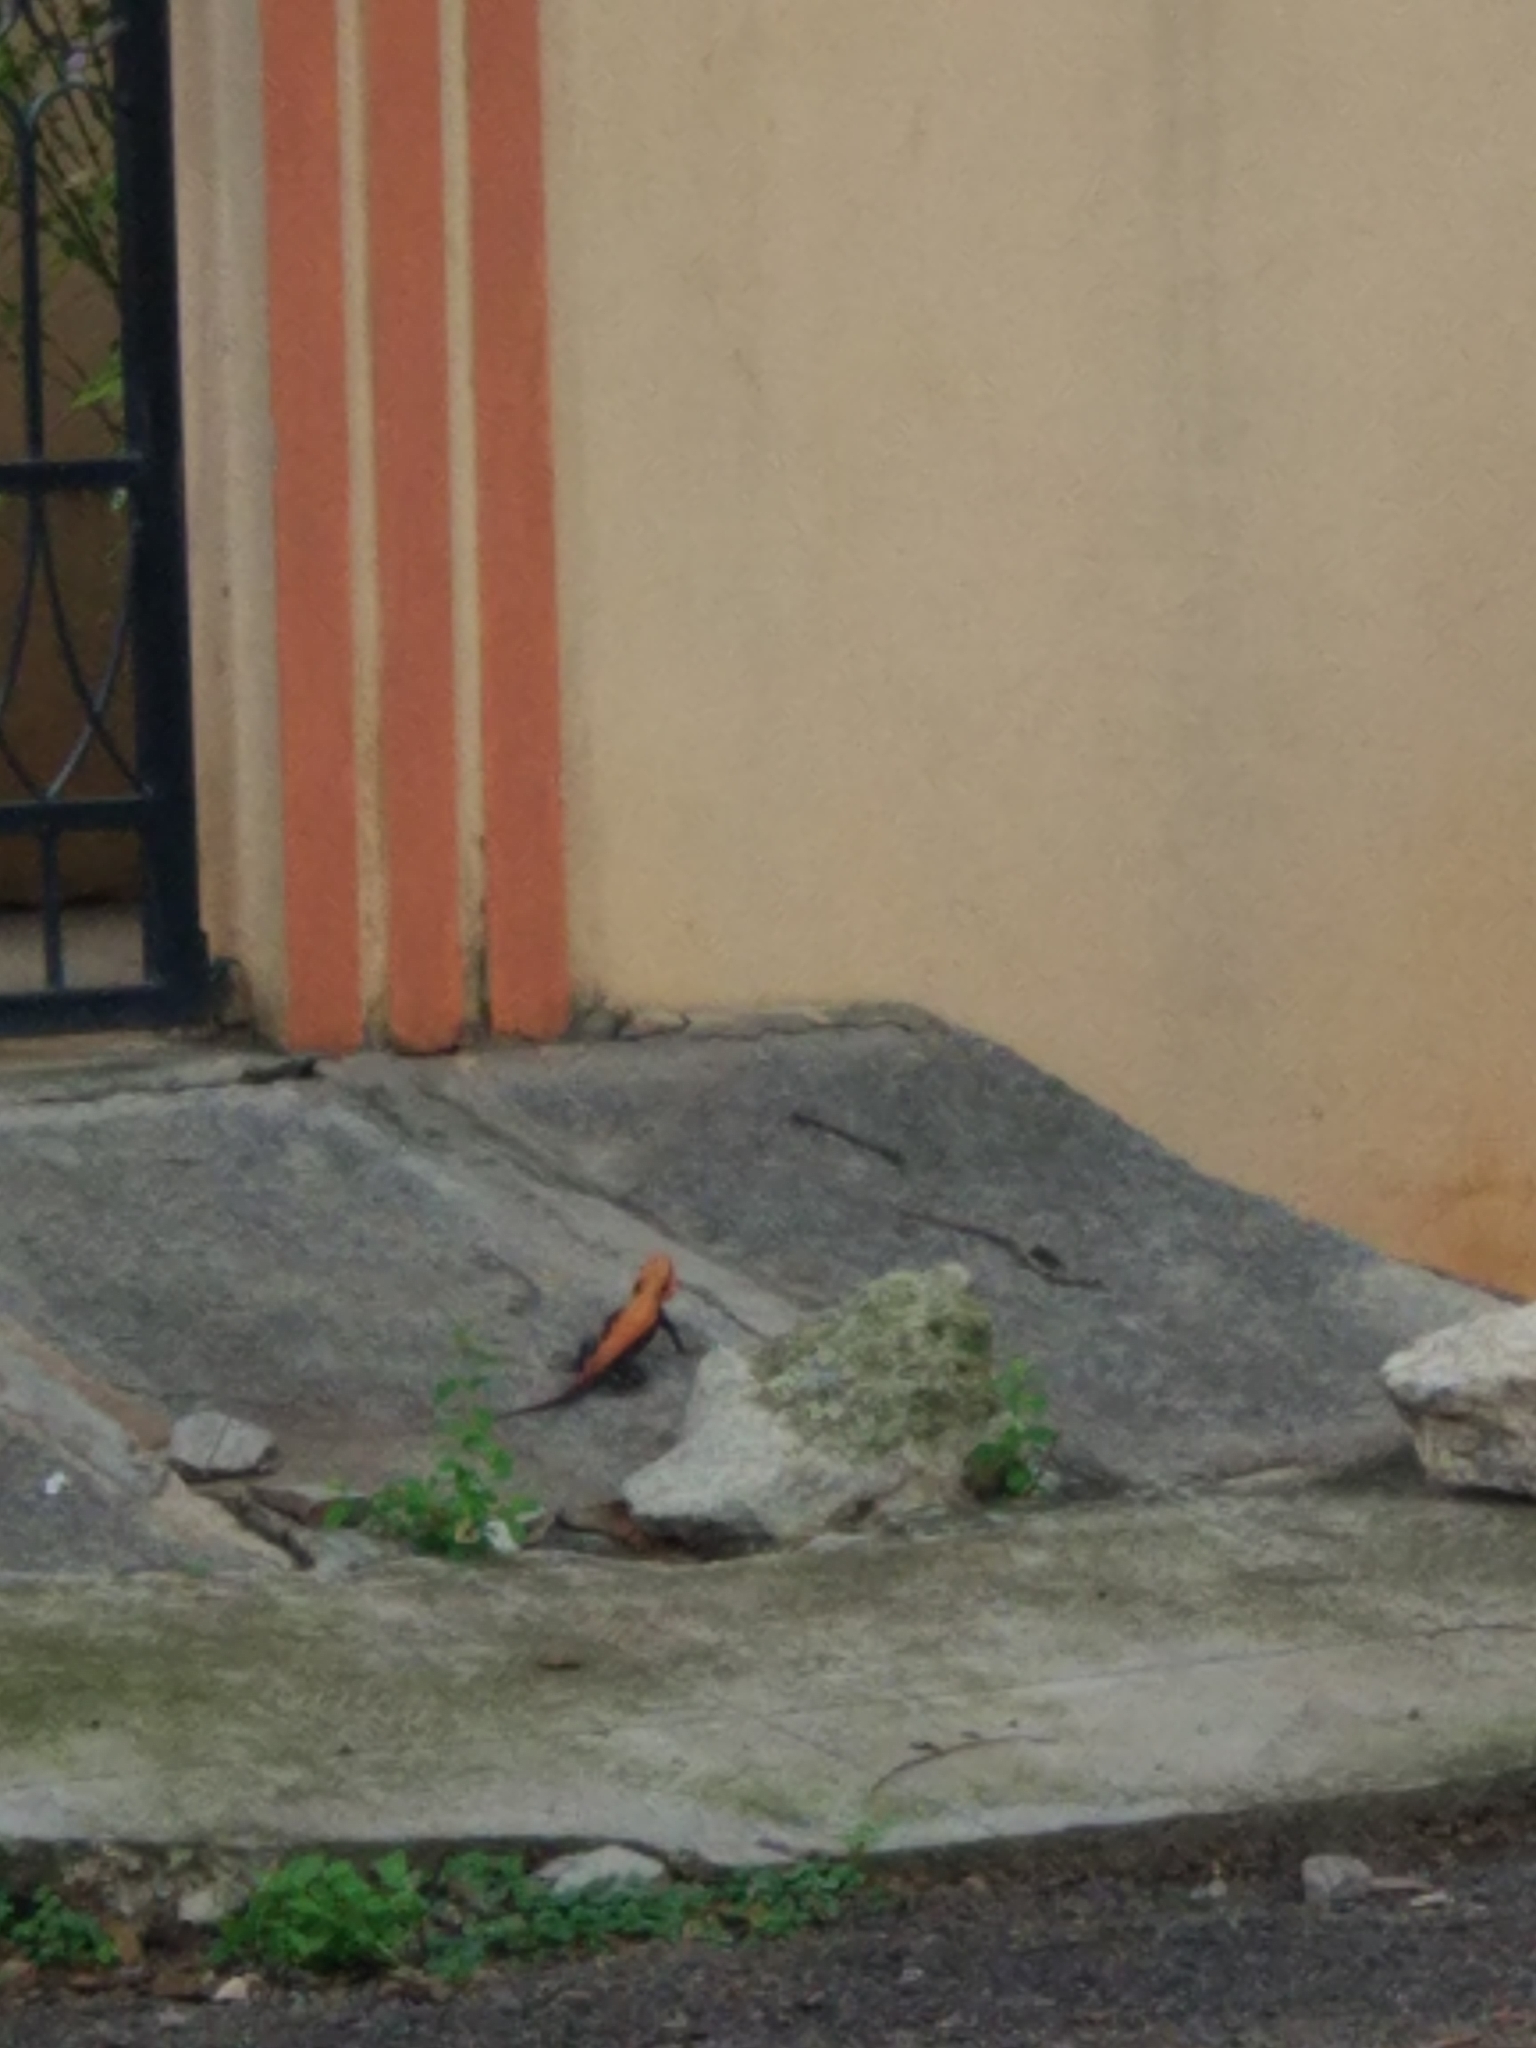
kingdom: Animalia
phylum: Chordata
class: Squamata
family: Agamidae
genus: Psammophilus
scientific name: Psammophilus dorsalis
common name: South indian rock agama
